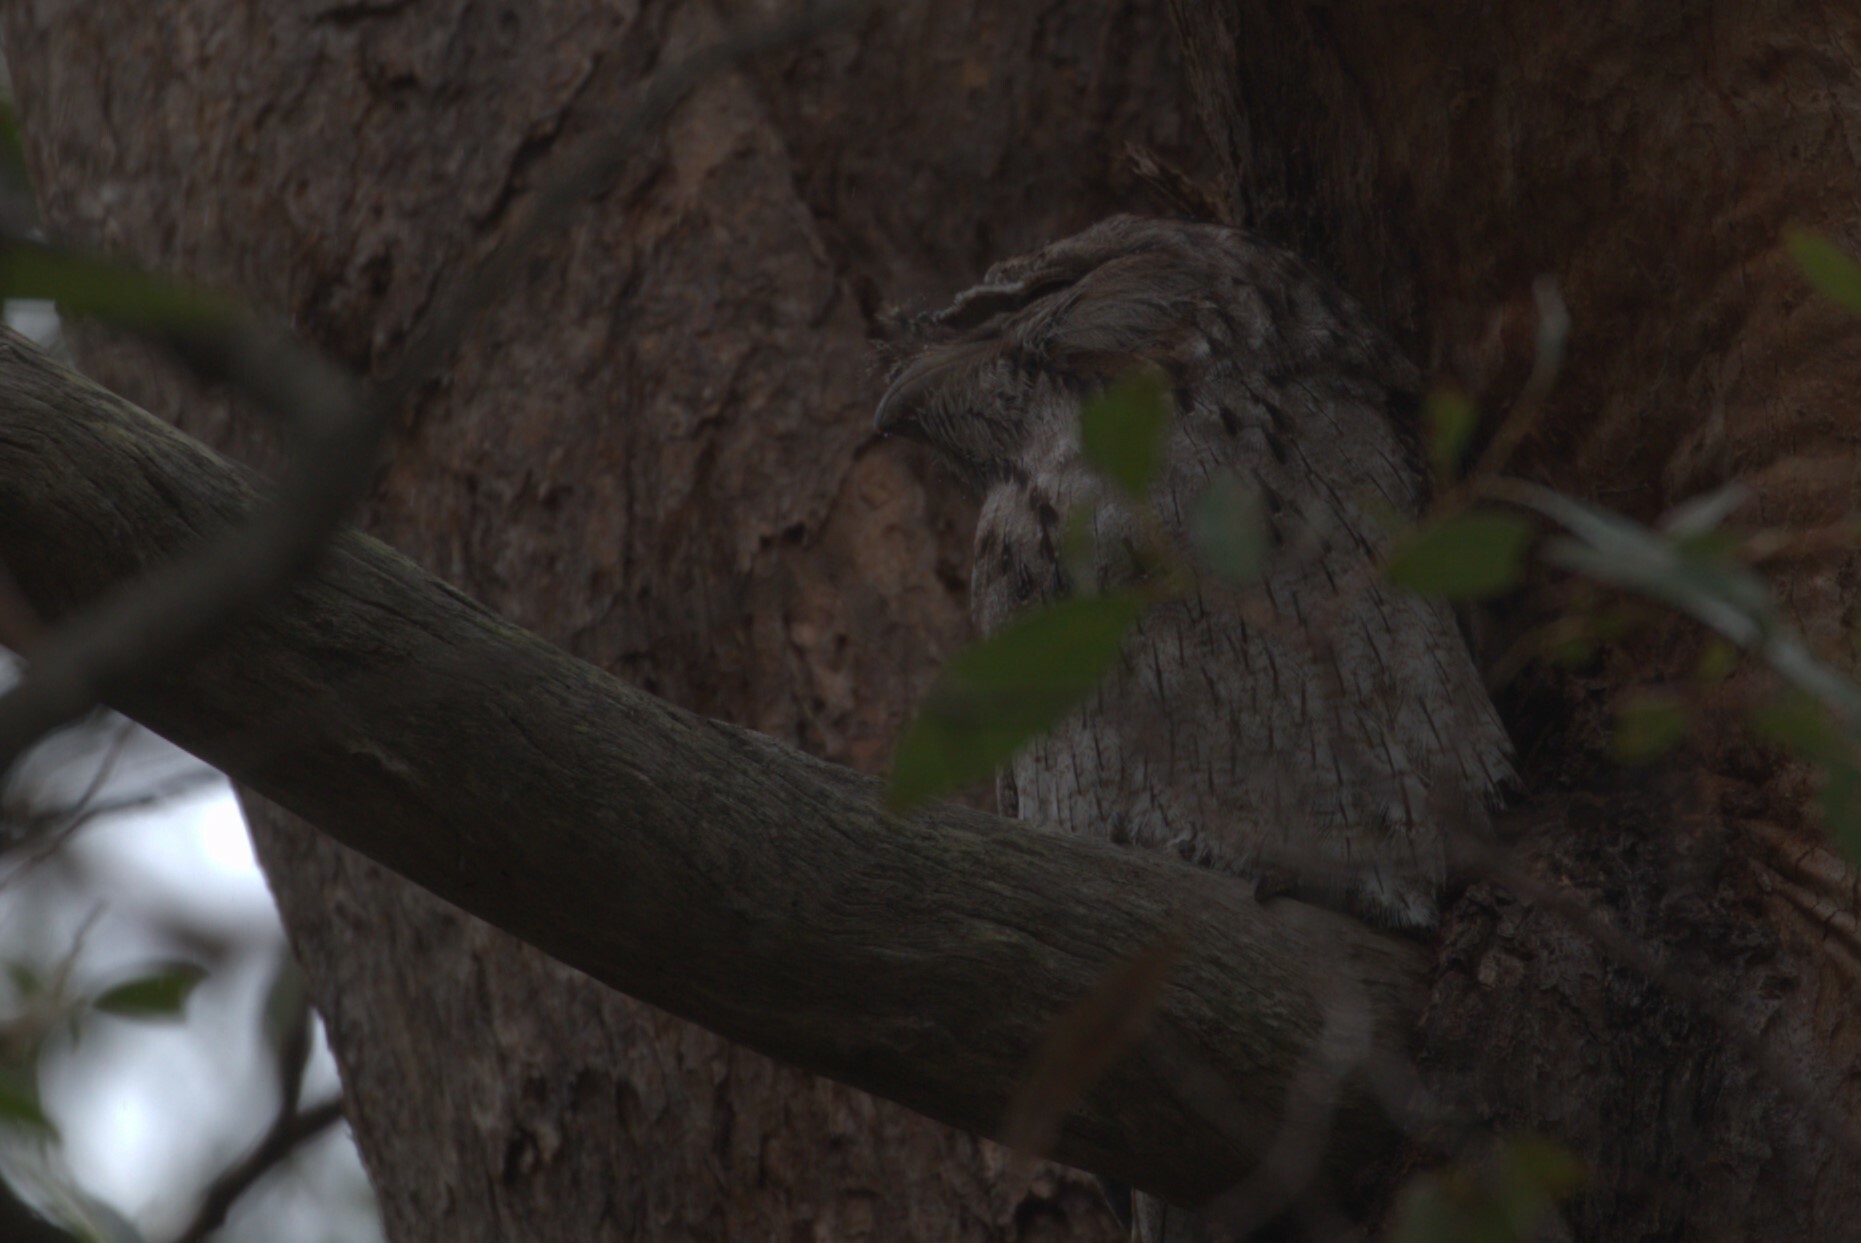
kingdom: Animalia
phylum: Chordata
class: Aves
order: Caprimulgiformes
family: Podargidae
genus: Podargus
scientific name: Podargus strigoides
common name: Tawny frogmouth
